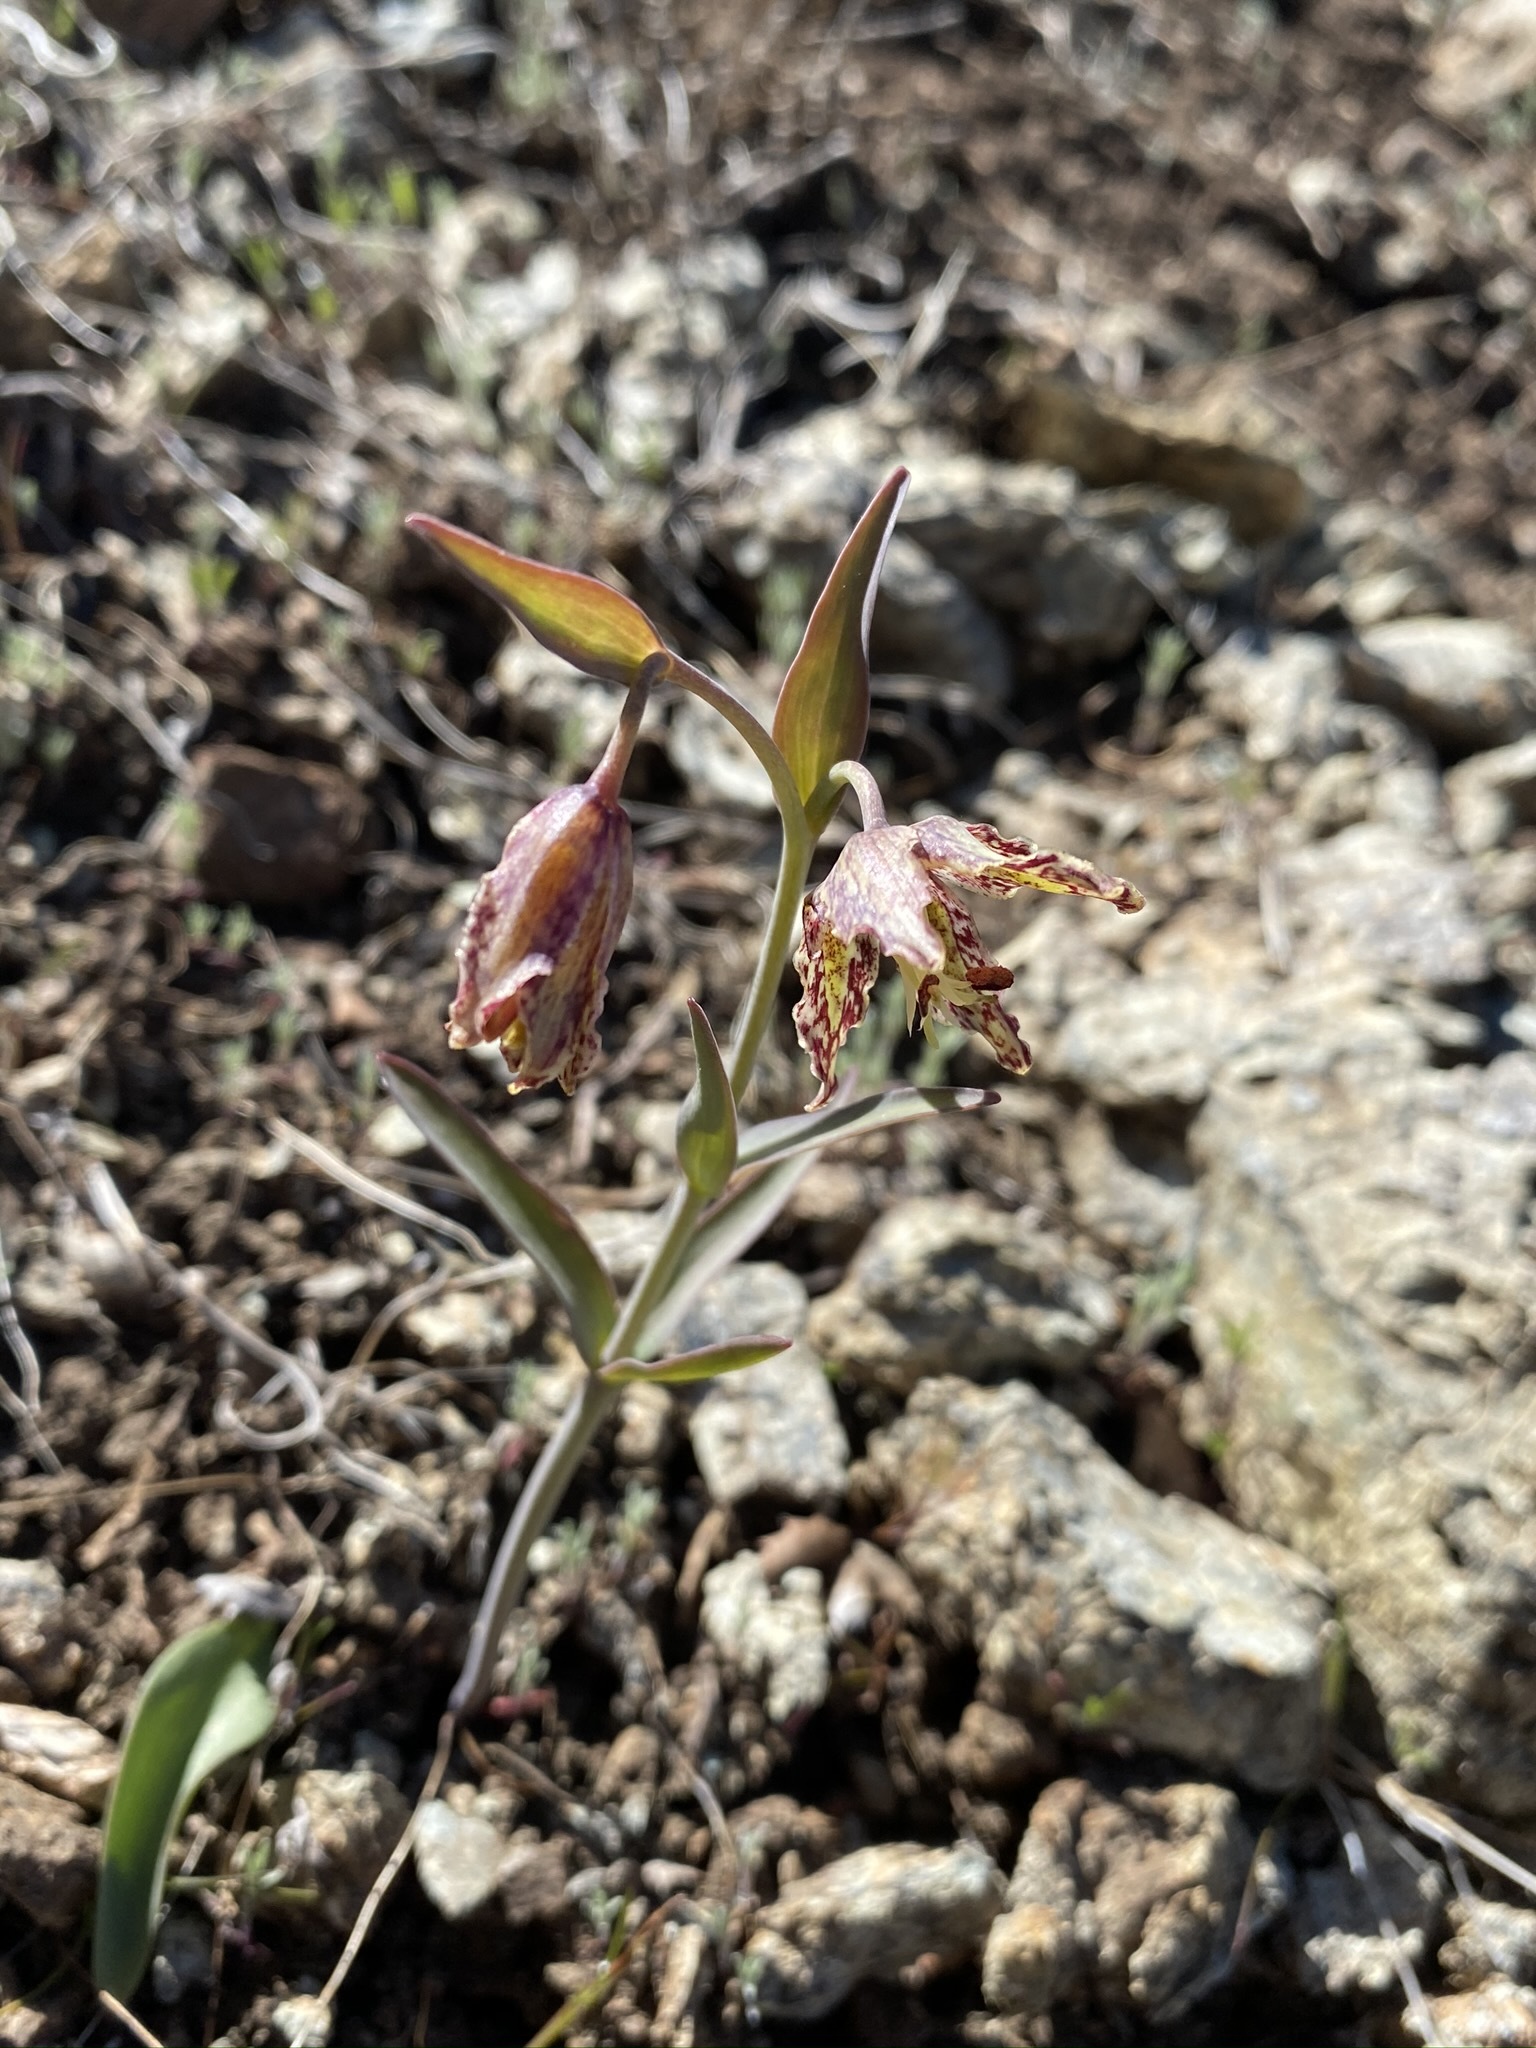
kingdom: Plantae
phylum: Tracheophyta
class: Liliopsida
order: Liliales
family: Liliaceae
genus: Fritillaria
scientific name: Fritillaria affinis
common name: Ojai fritillary
